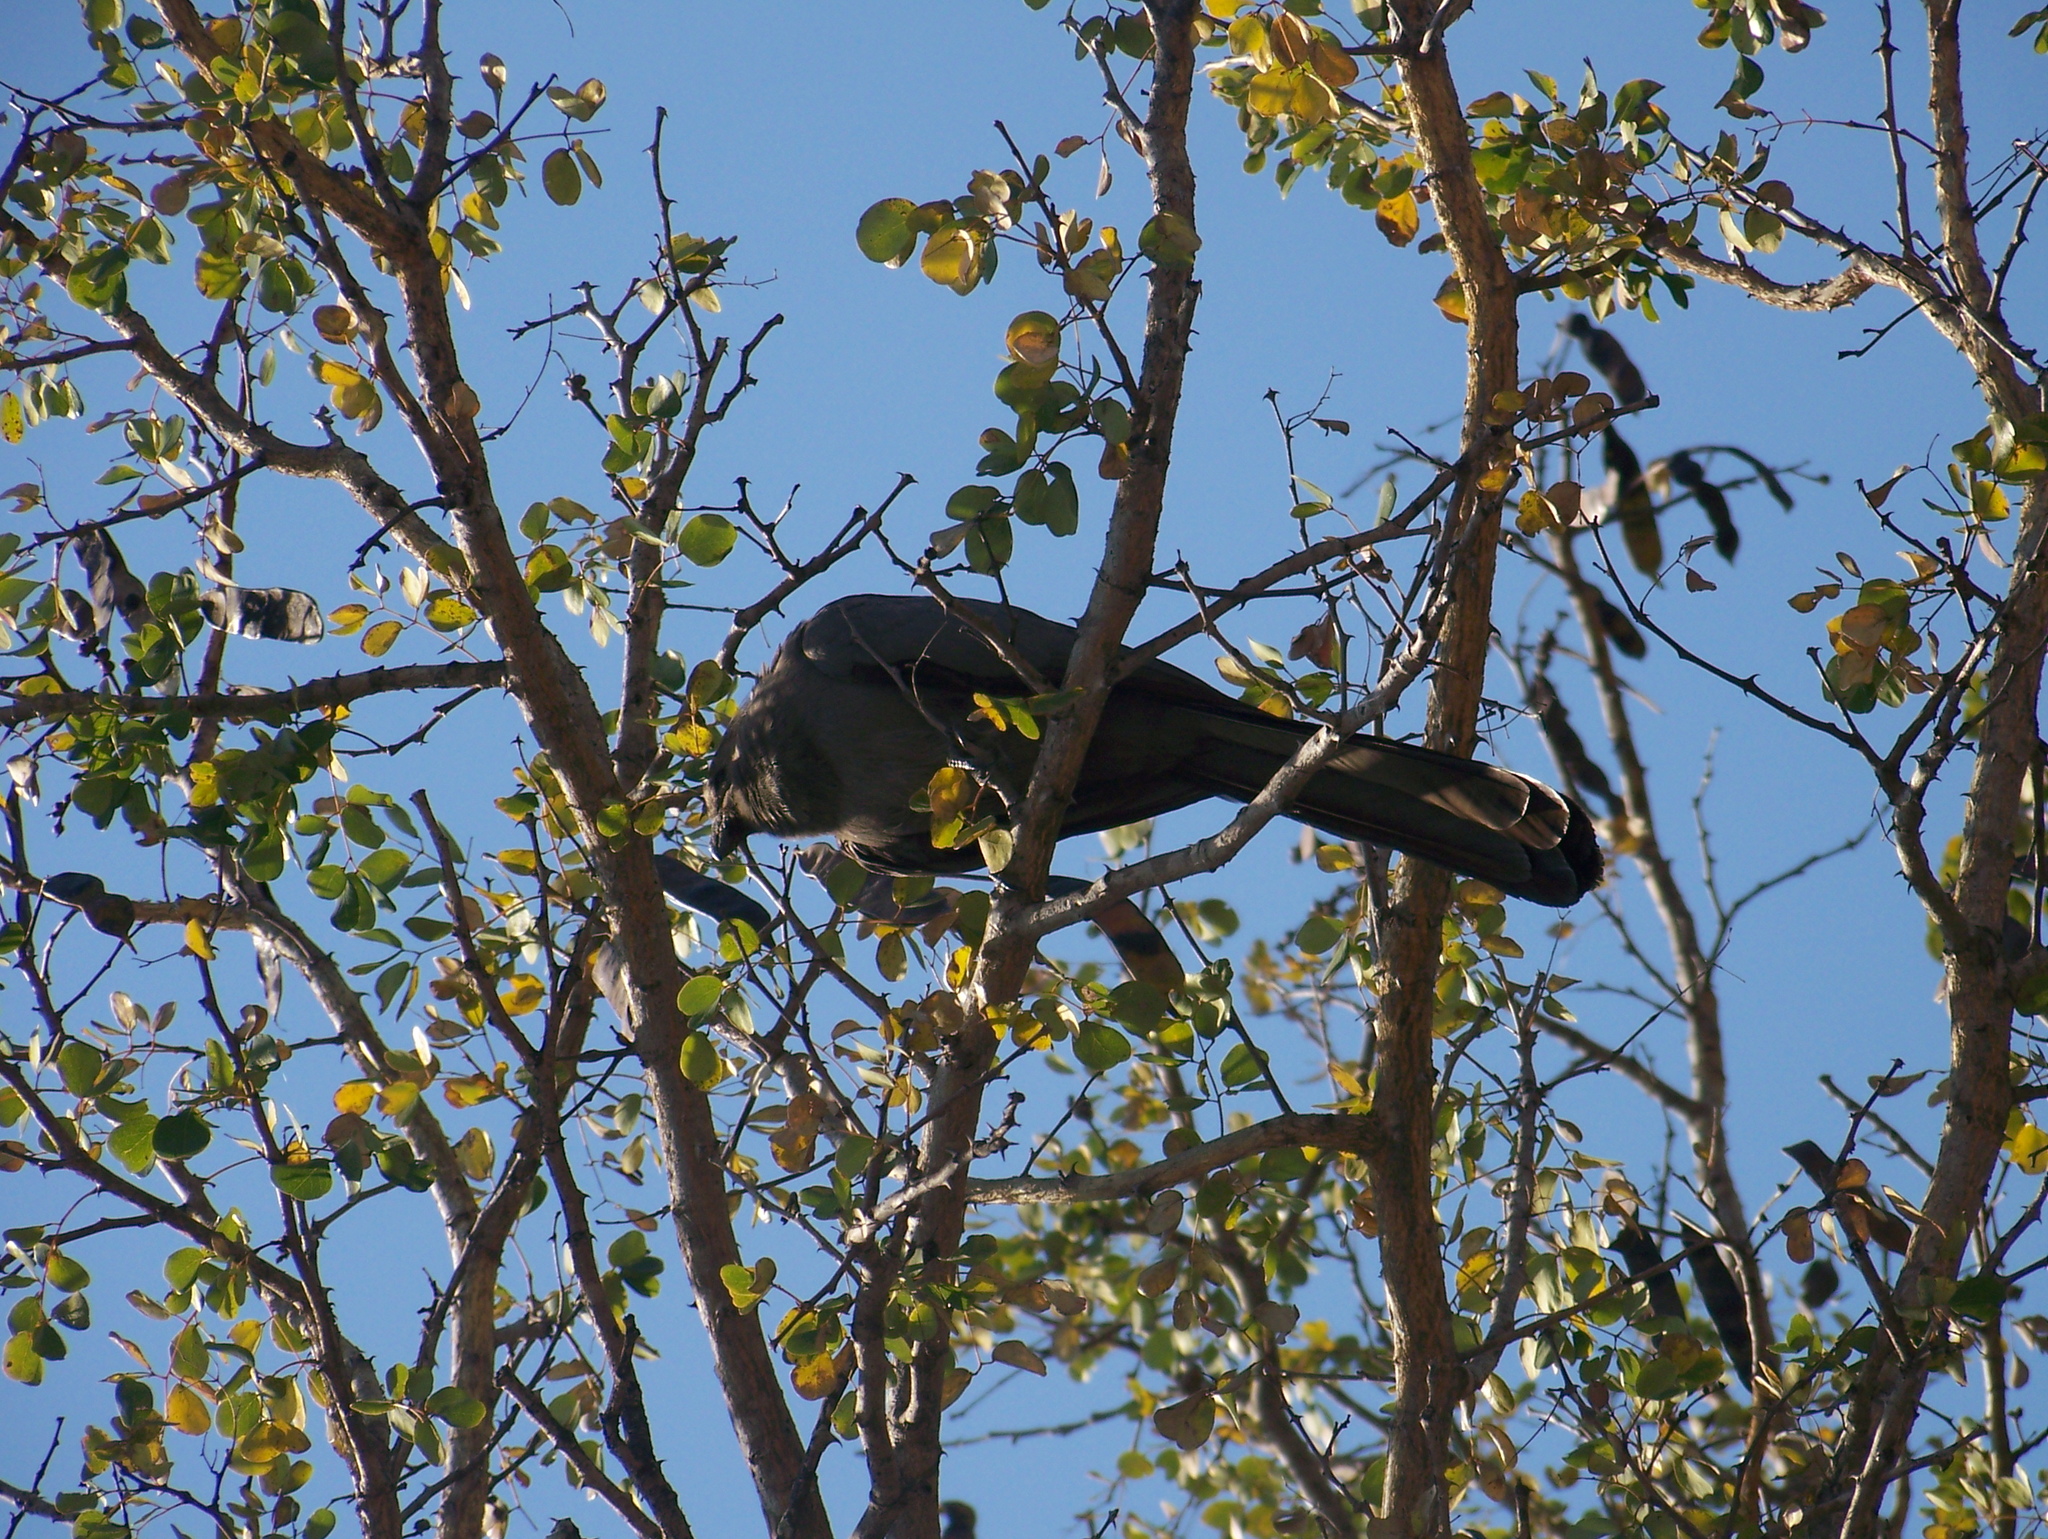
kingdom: Animalia
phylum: Chordata
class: Aves
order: Musophagiformes
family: Musophagidae
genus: Corythaixoides
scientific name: Corythaixoides concolor
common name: Grey go-away-bird
